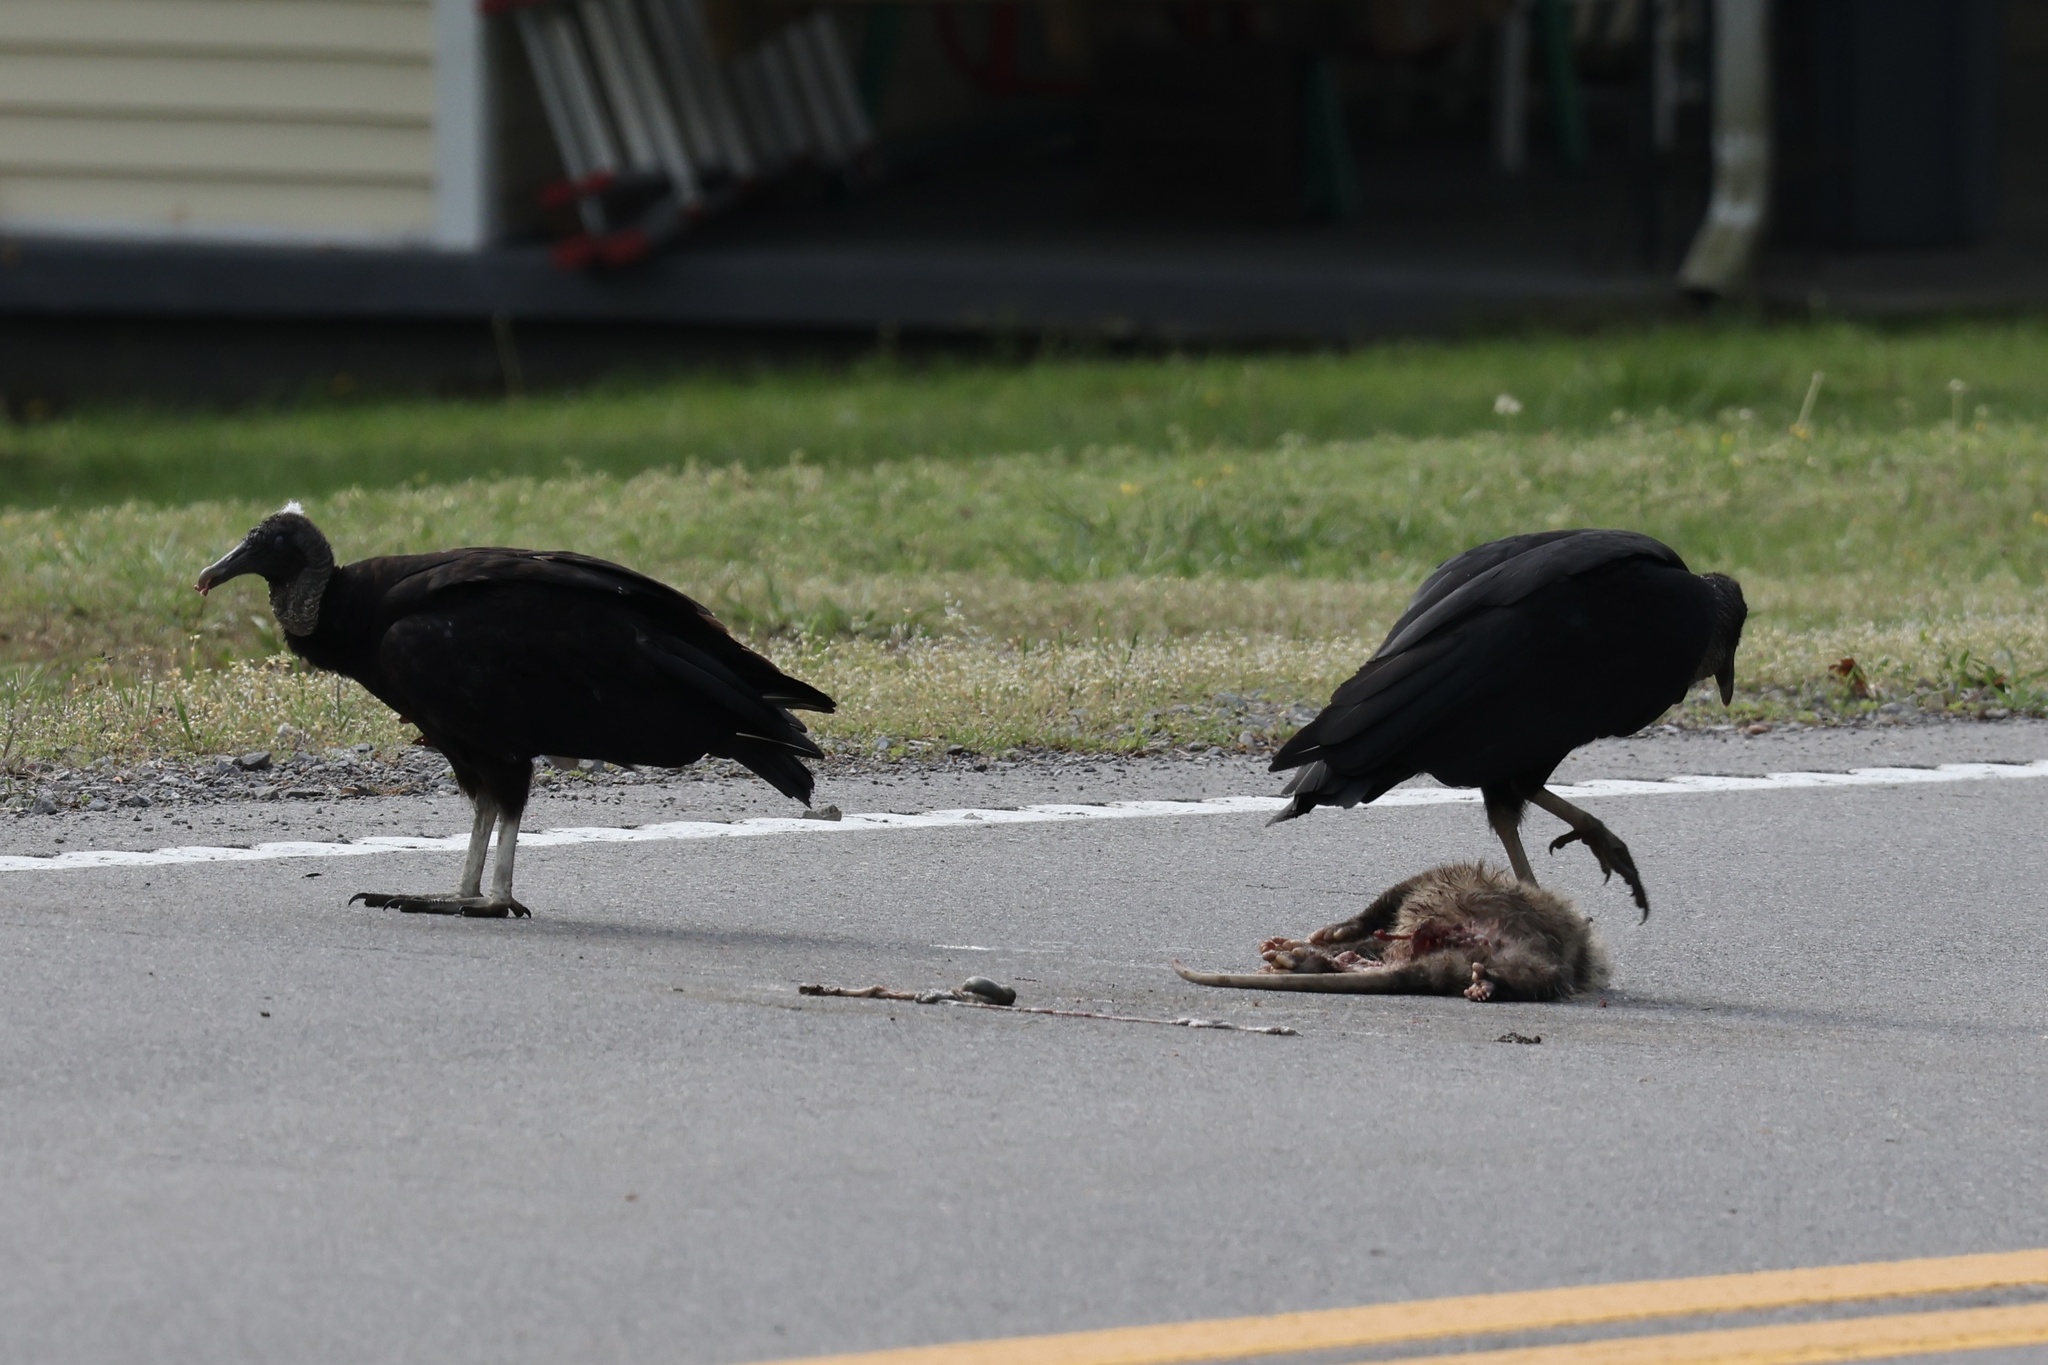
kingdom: Animalia
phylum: Chordata
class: Aves
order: Accipitriformes
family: Cathartidae
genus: Coragyps
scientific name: Coragyps atratus
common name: Black vulture
